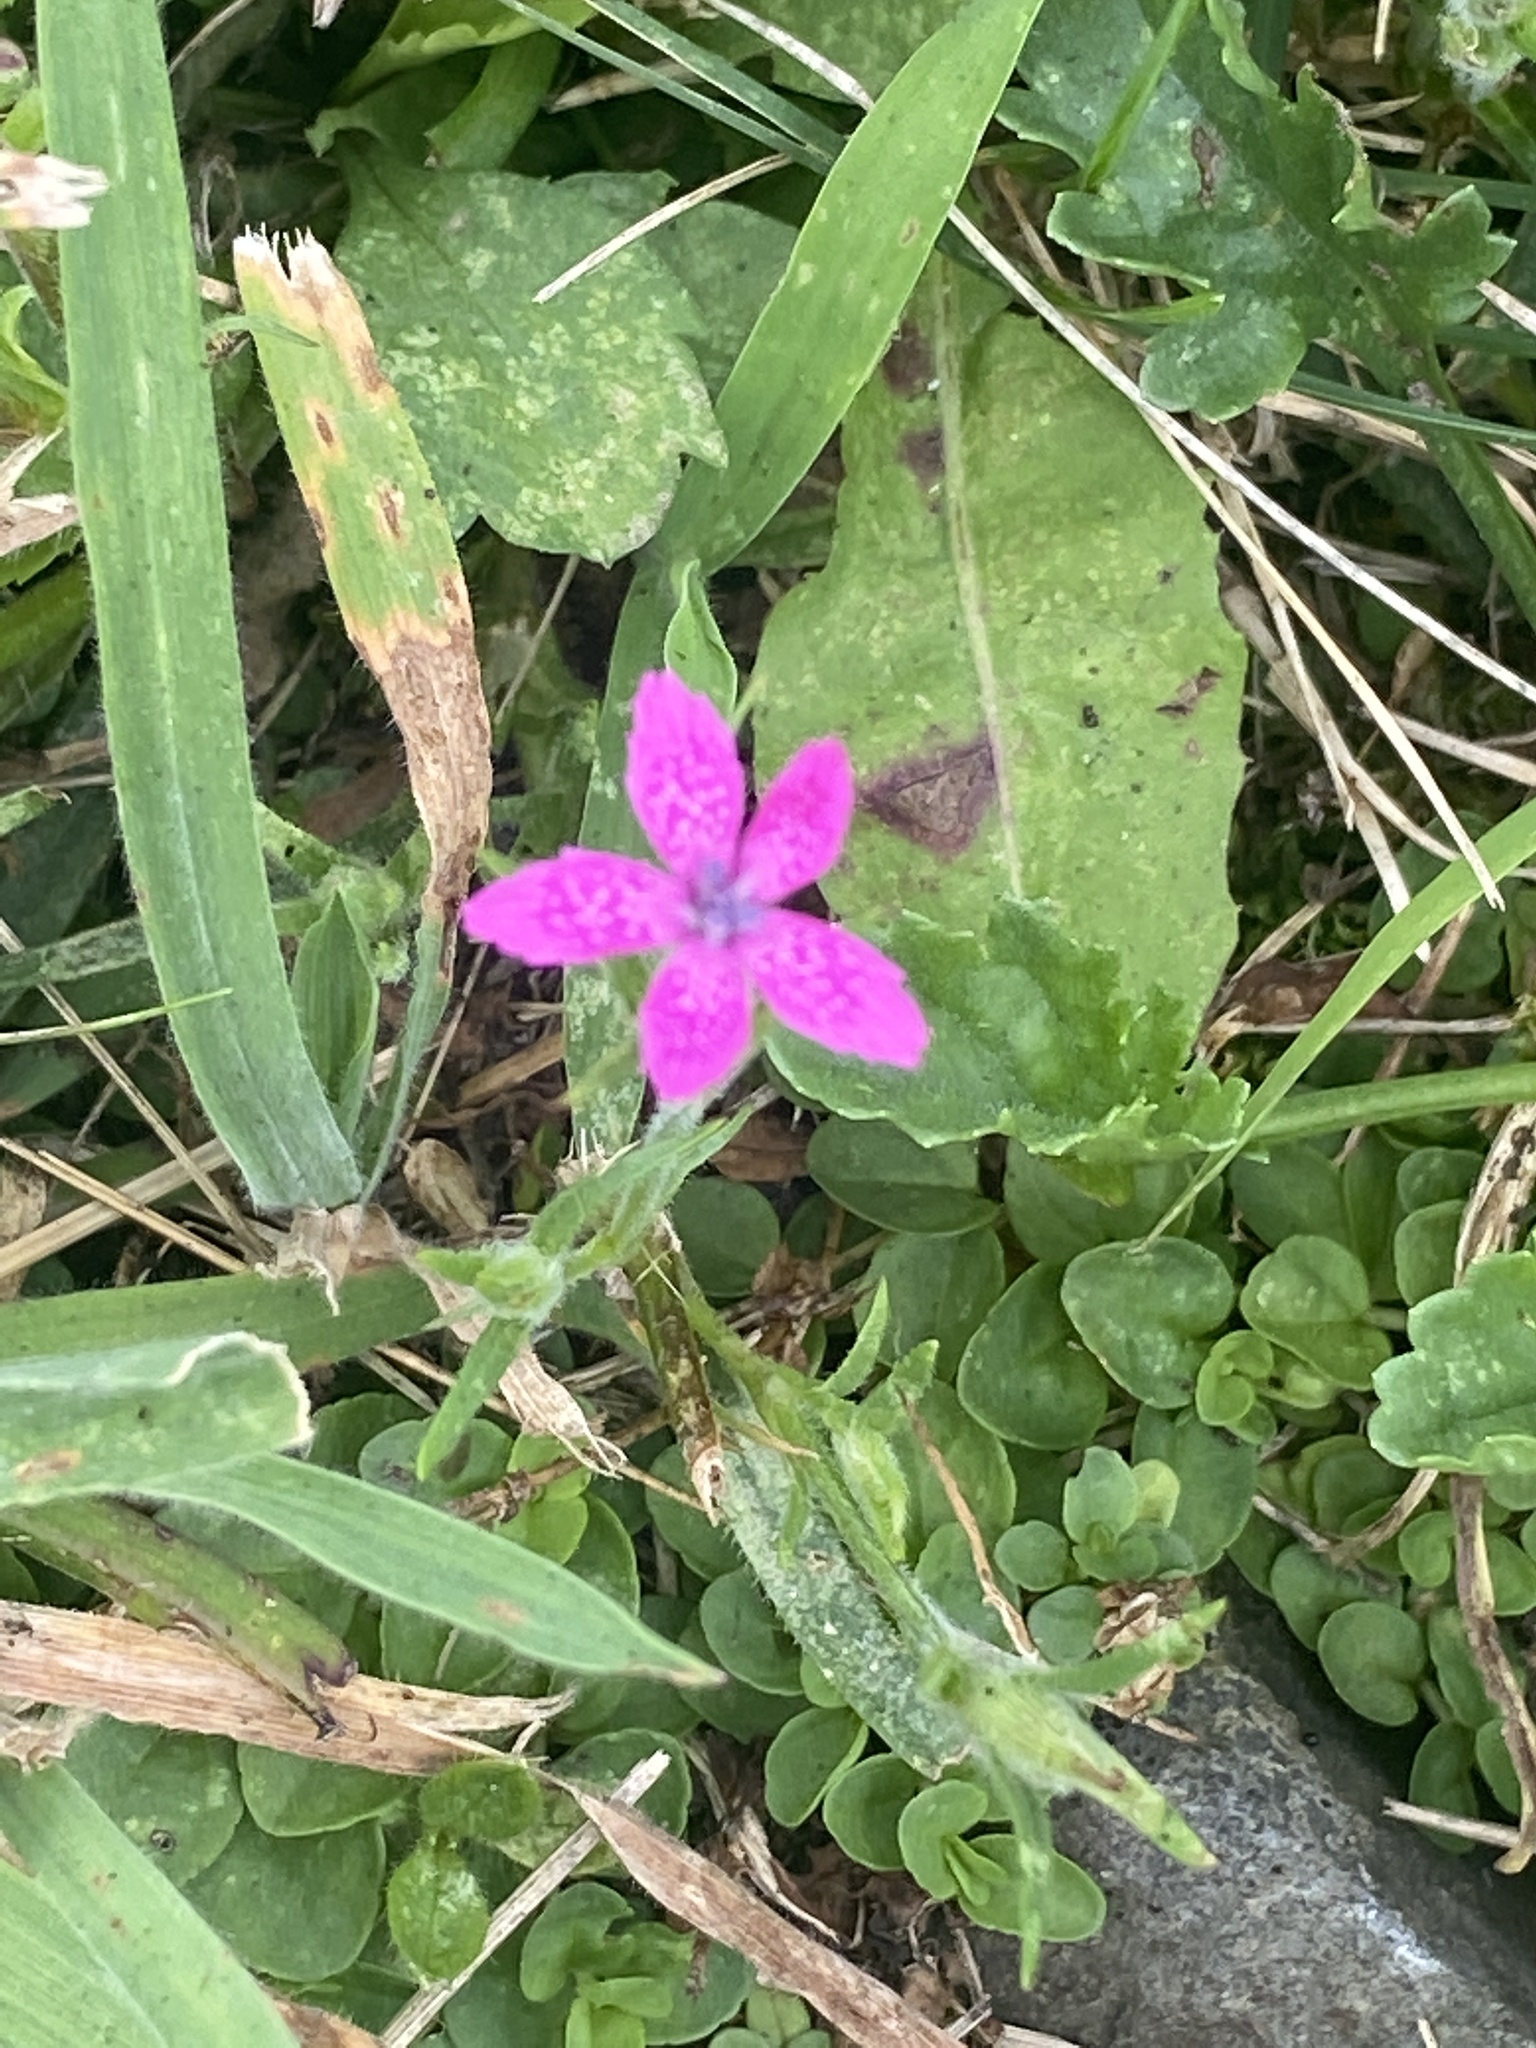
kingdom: Plantae
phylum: Tracheophyta
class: Magnoliopsida
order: Caryophyllales
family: Caryophyllaceae
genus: Dianthus
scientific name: Dianthus armeria
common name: Deptford pink
